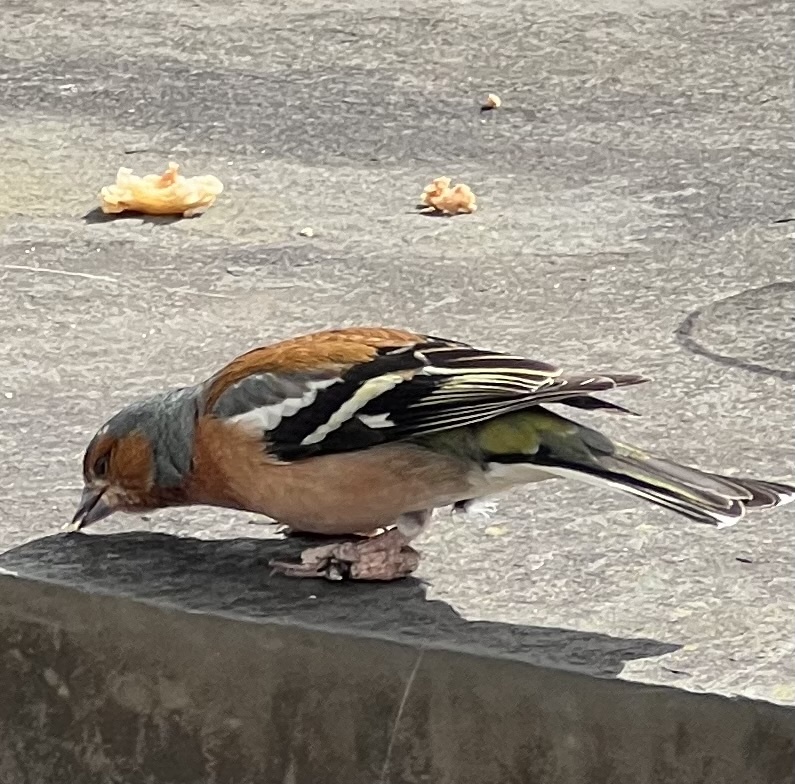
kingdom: Animalia
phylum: Chordata
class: Aves
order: Passeriformes
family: Fringillidae
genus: Fringilla
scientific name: Fringilla coelebs
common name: Common chaffinch
